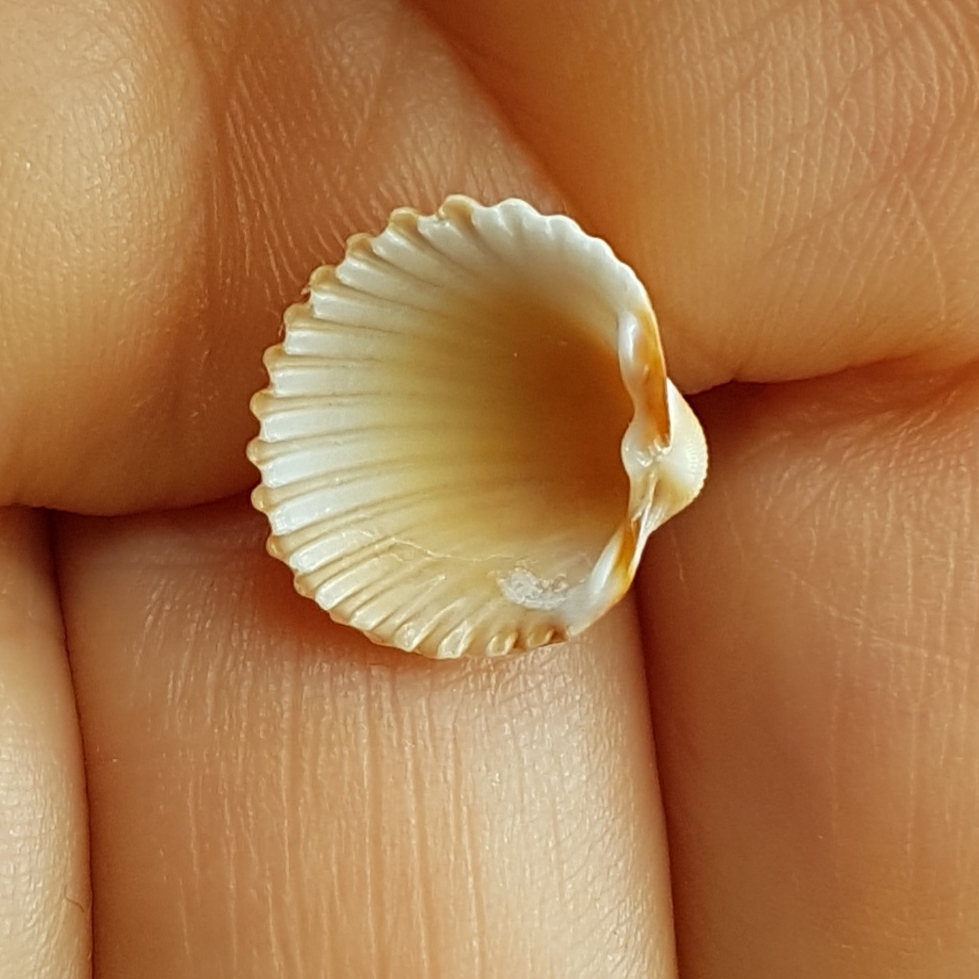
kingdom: Animalia
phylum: Mollusca
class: Bivalvia
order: Cardiida
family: Cardiidae
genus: Acanthocardia
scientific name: Acanthocardia tuberculata
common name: Rough cockle
